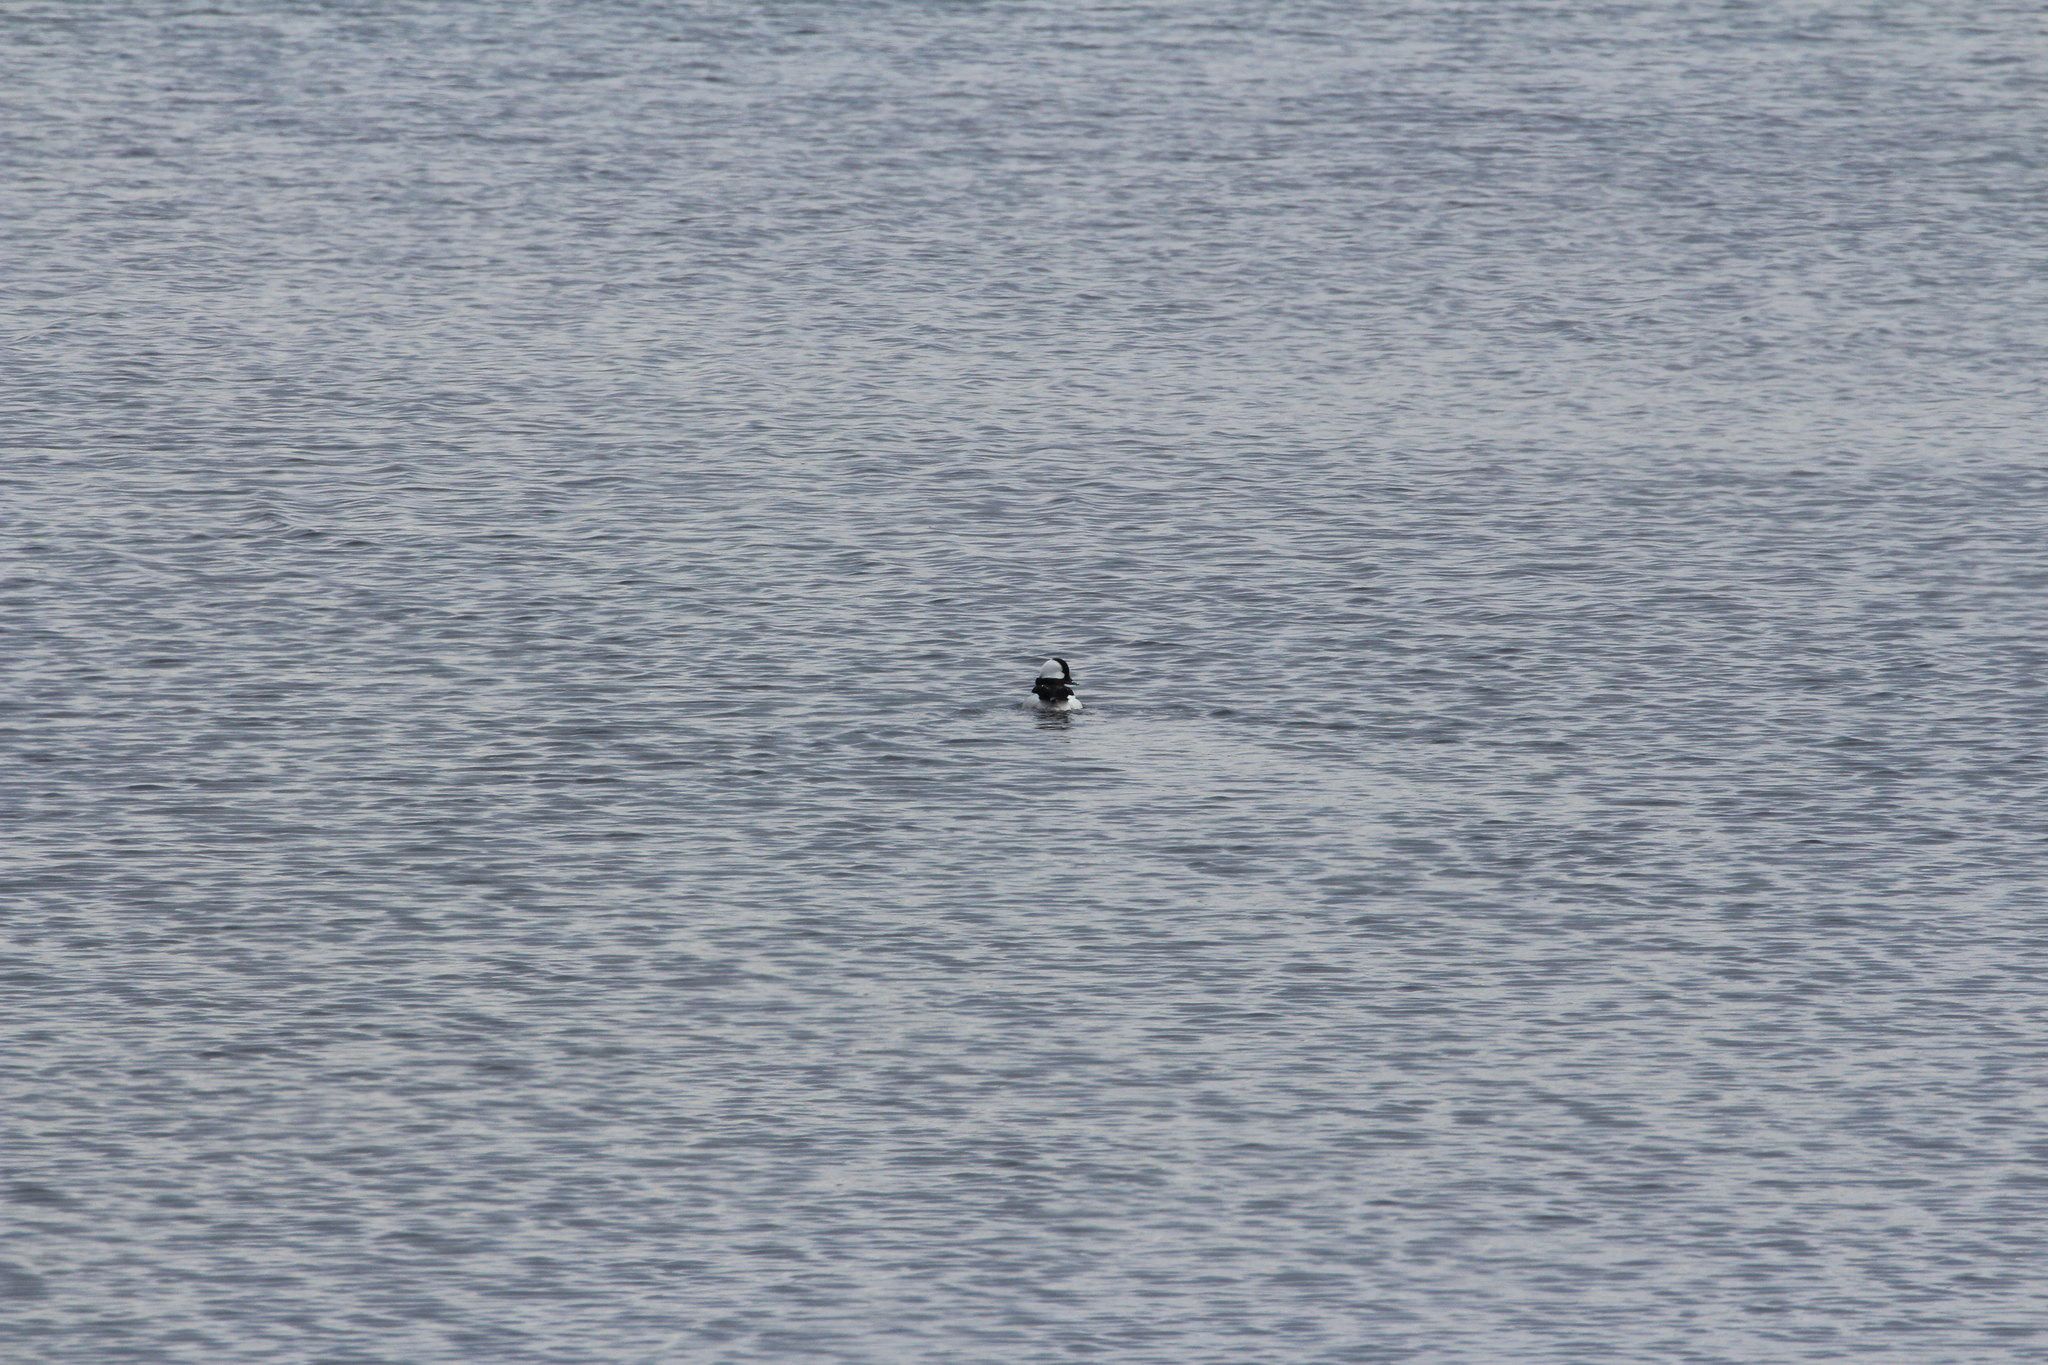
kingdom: Animalia
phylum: Chordata
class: Aves
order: Anseriformes
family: Anatidae
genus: Bucephala
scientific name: Bucephala albeola
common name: Bufflehead
